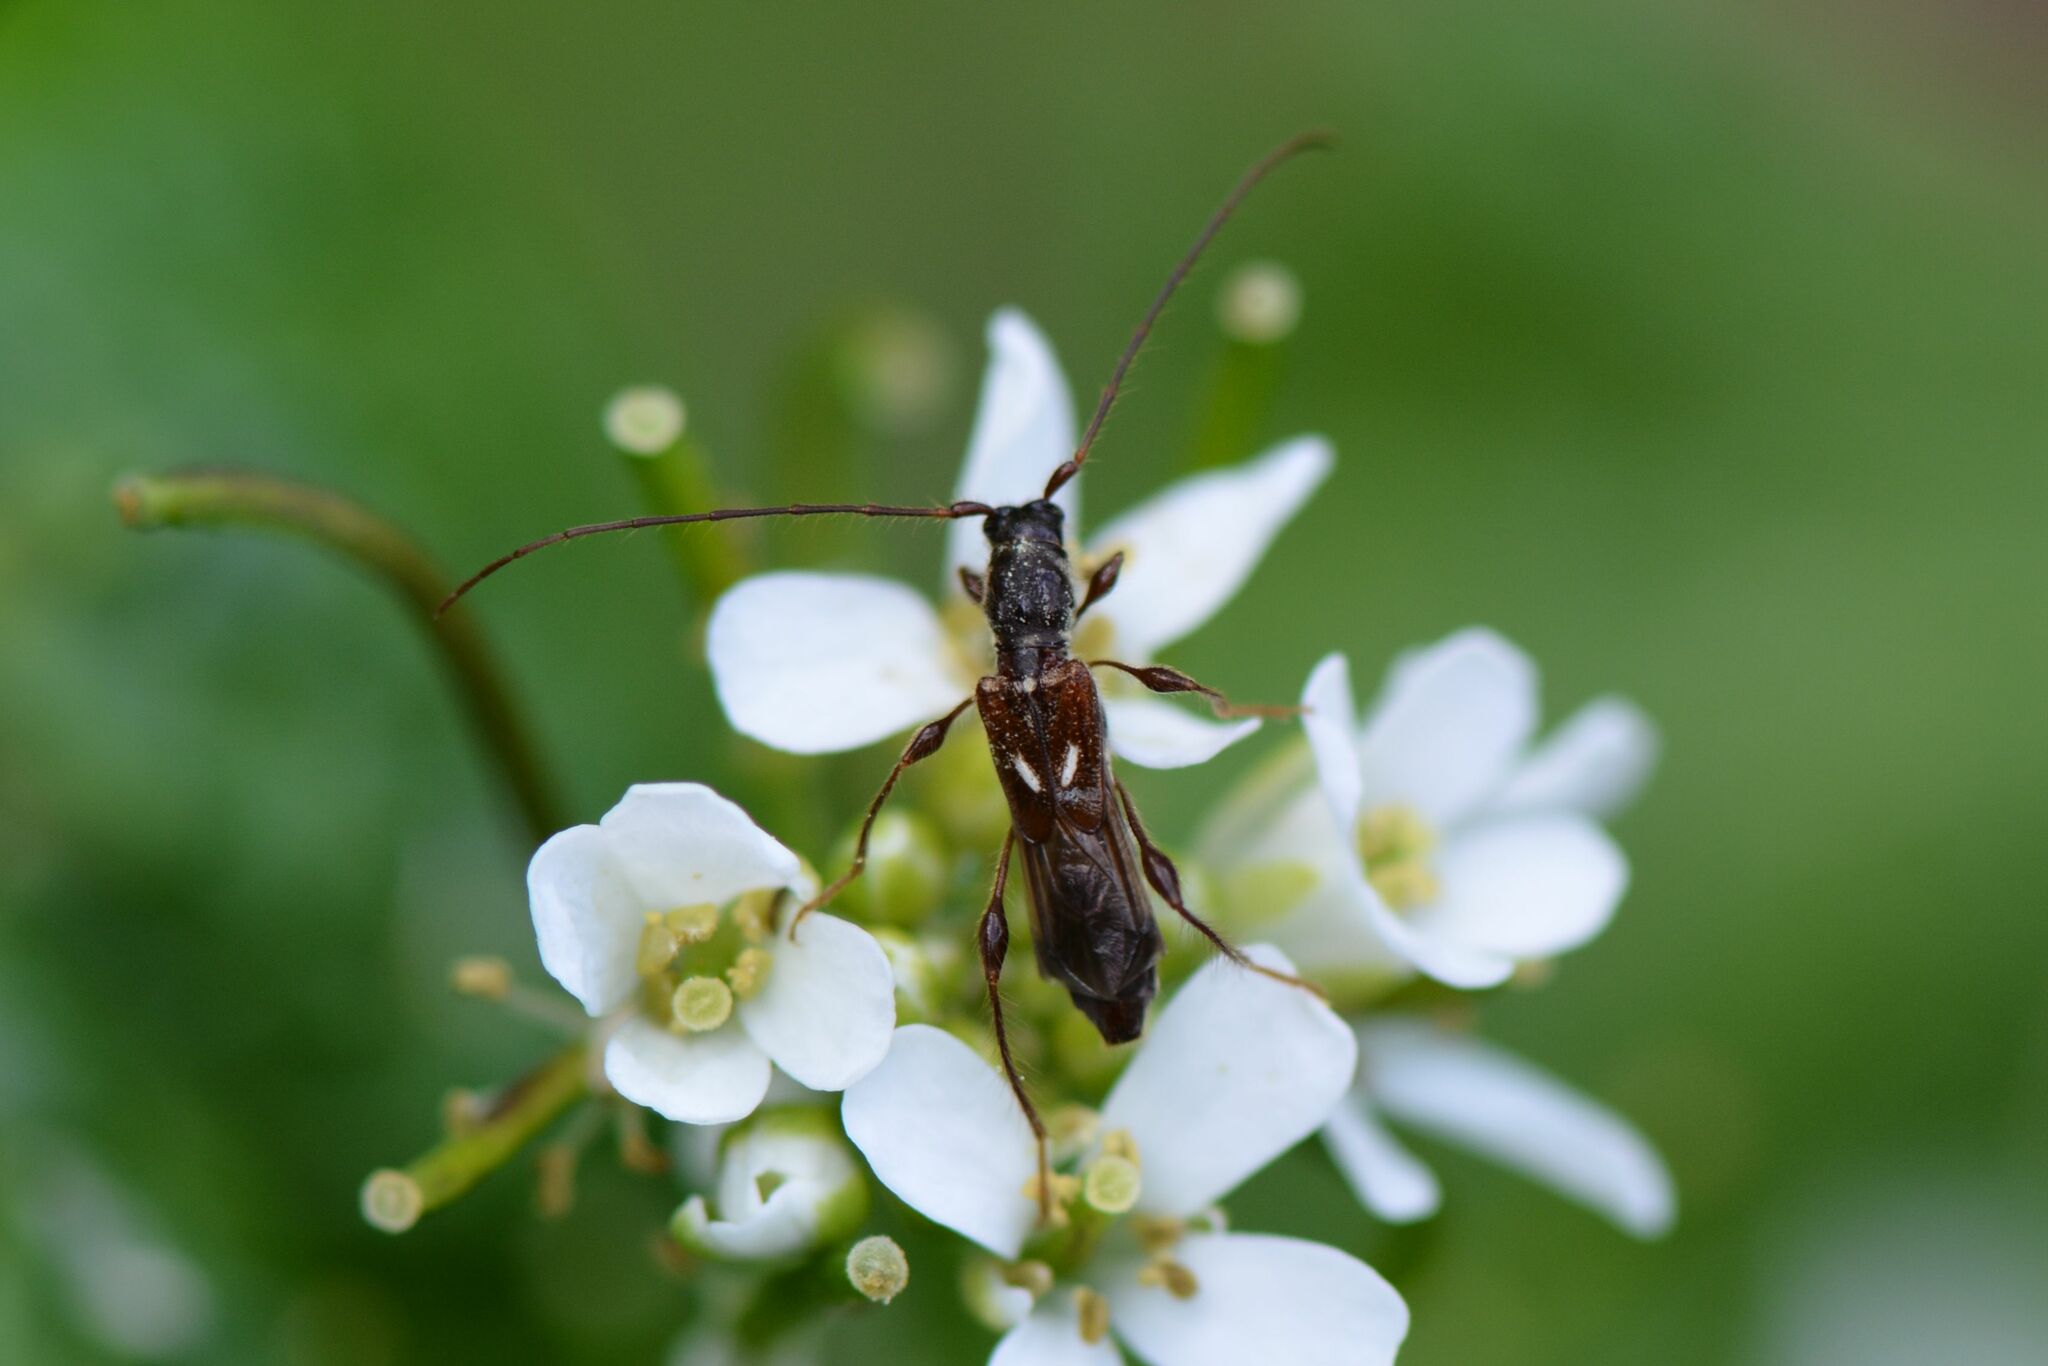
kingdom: Animalia
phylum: Arthropoda
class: Insecta
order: Coleoptera
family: Cerambycidae
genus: Molorchus
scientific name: Molorchus minor
